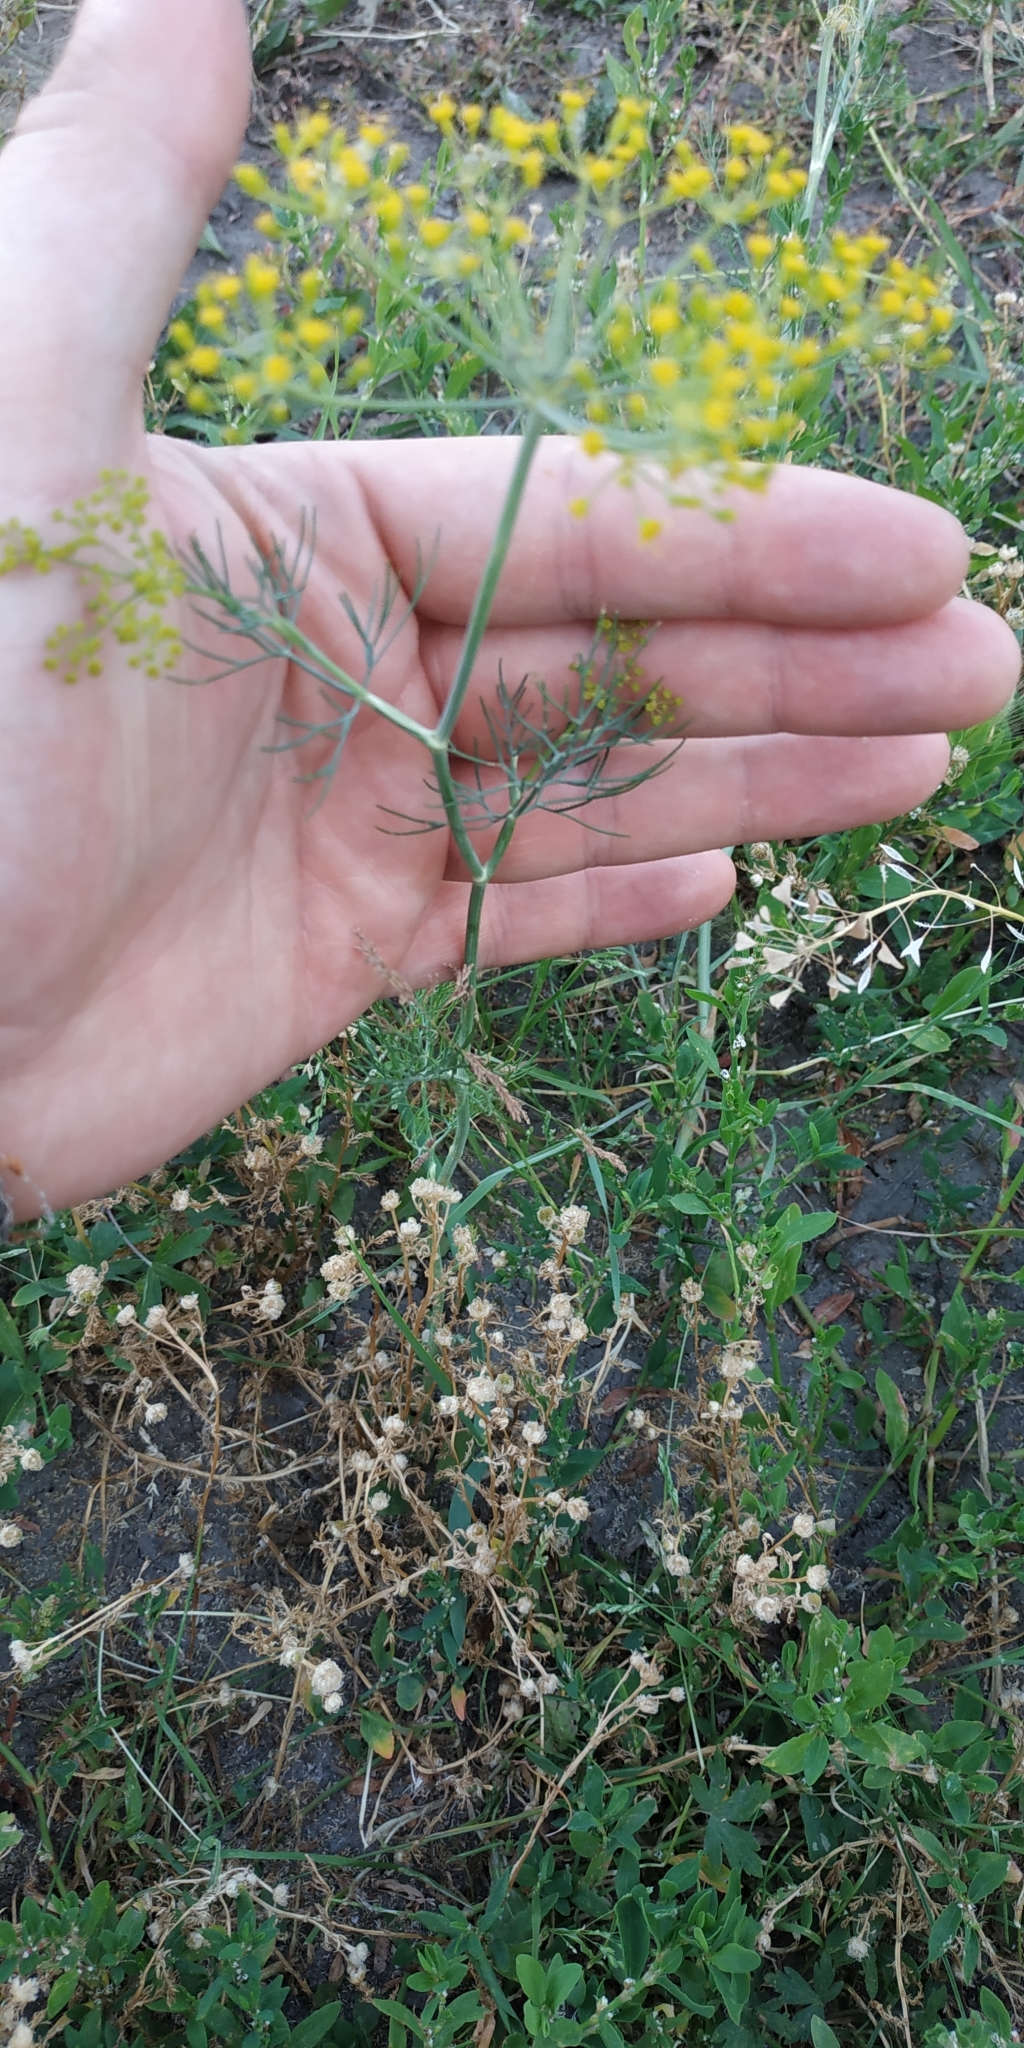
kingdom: Plantae
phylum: Tracheophyta
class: Magnoliopsida
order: Apiales
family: Apiaceae
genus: Anethum
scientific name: Anethum graveolens
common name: Dill
